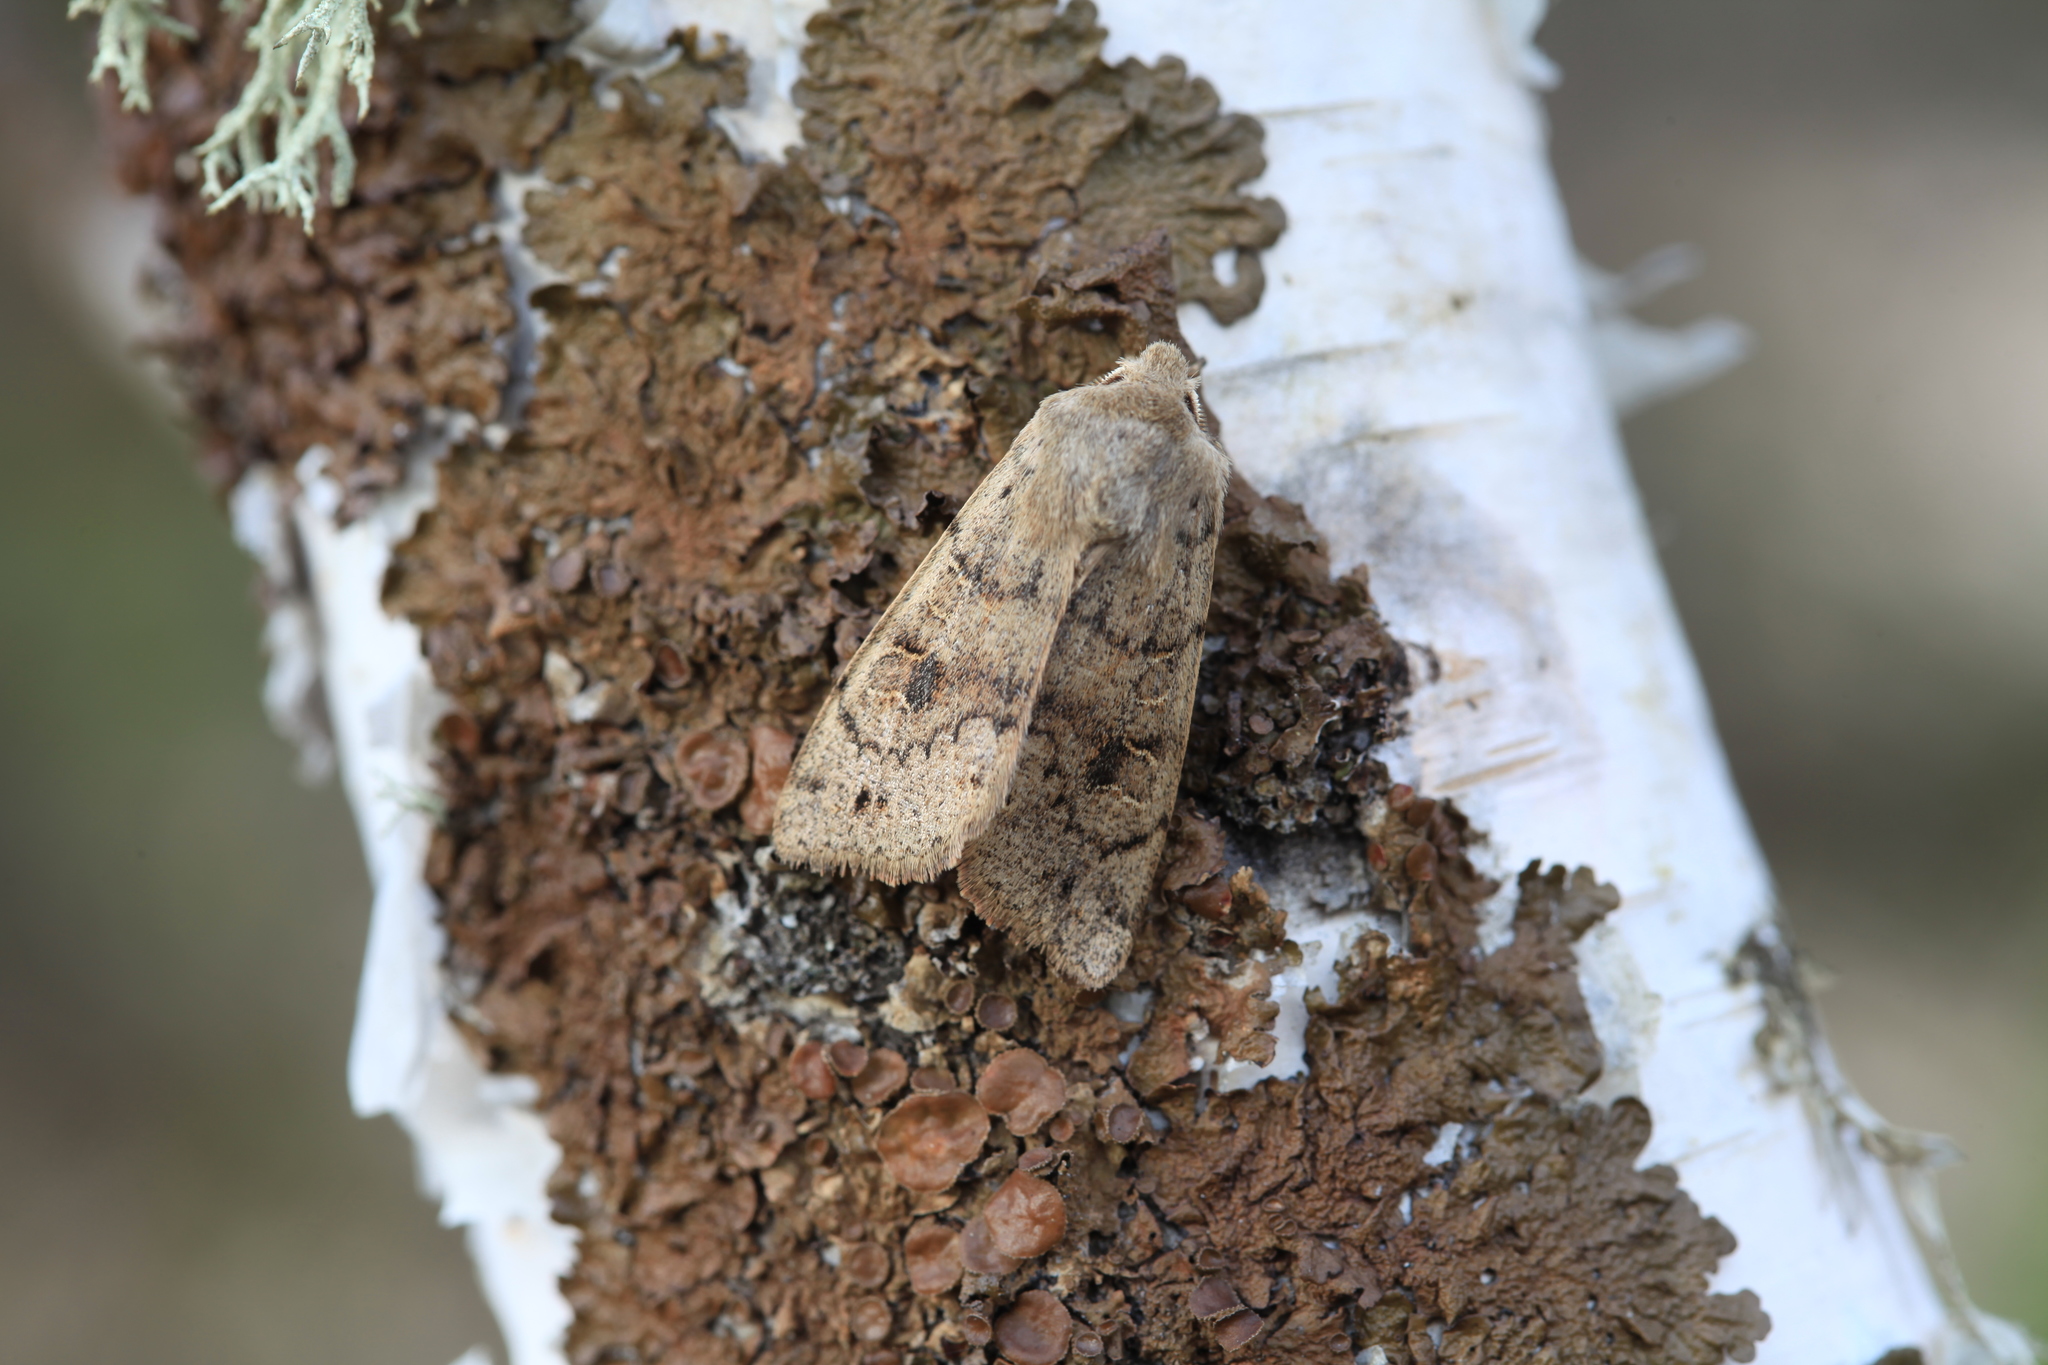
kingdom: Animalia
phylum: Arthropoda
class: Insecta
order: Lepidoptera
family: Noctuidae
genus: Anorthoa
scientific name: Anorthoa munda
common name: Twin-spotted quaker
